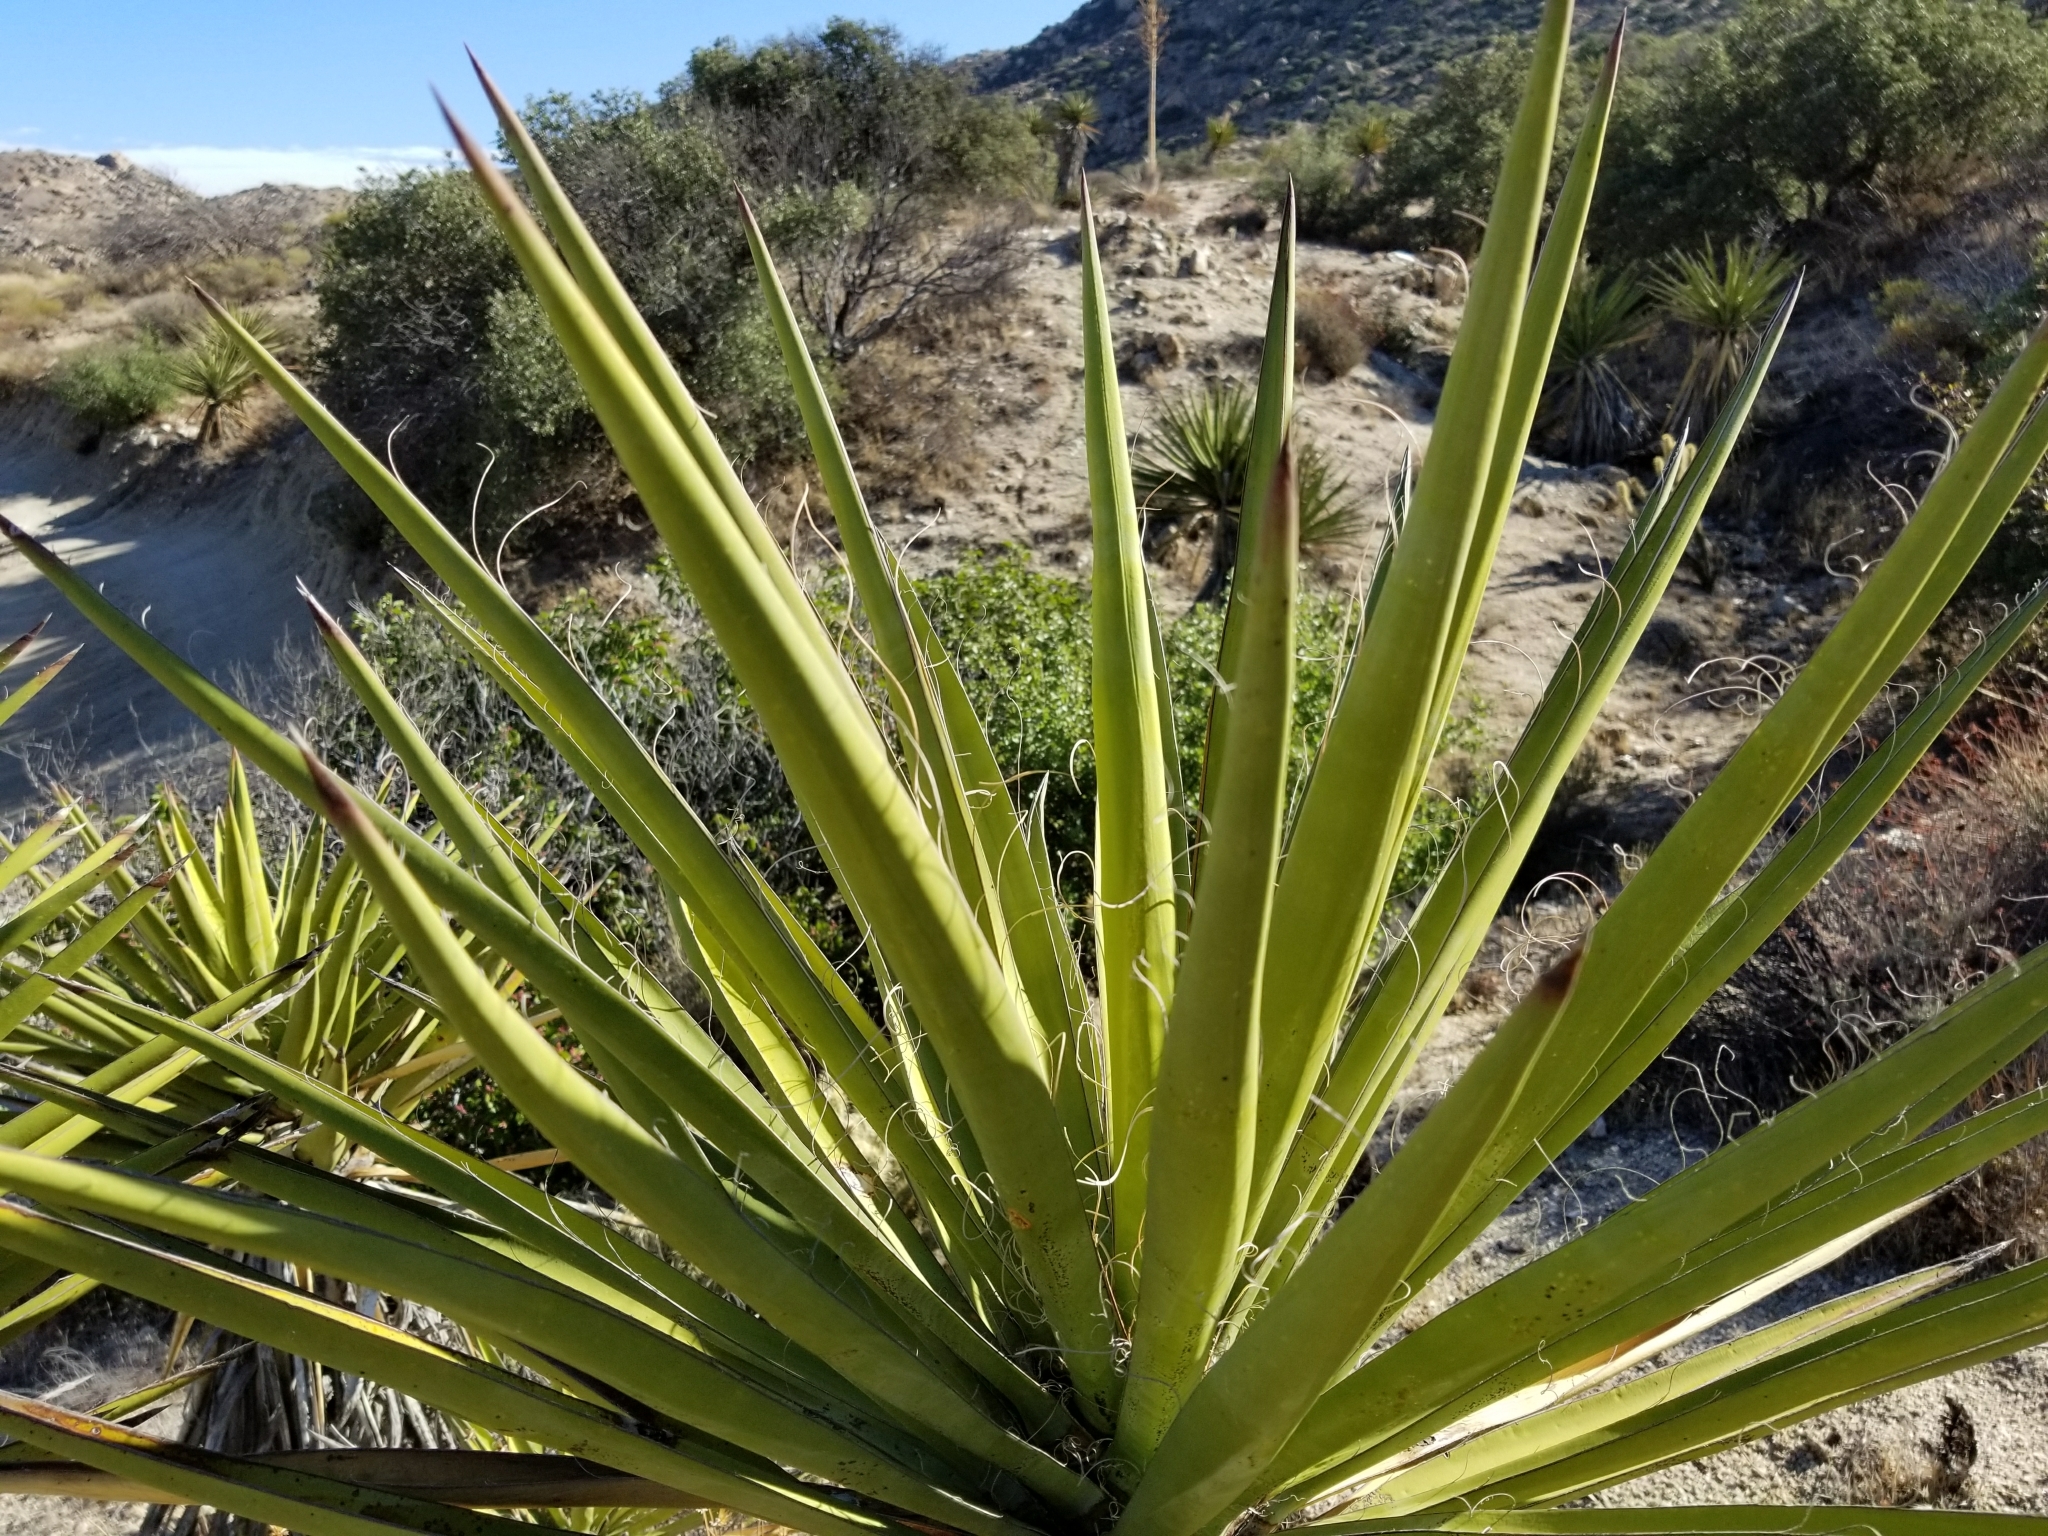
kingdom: Plantae
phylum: Tracheophyta
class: Liliopsida
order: Asparagales
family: Asparagaceae
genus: Yucca
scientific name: Yucca schidigera
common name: Mojave yucca
